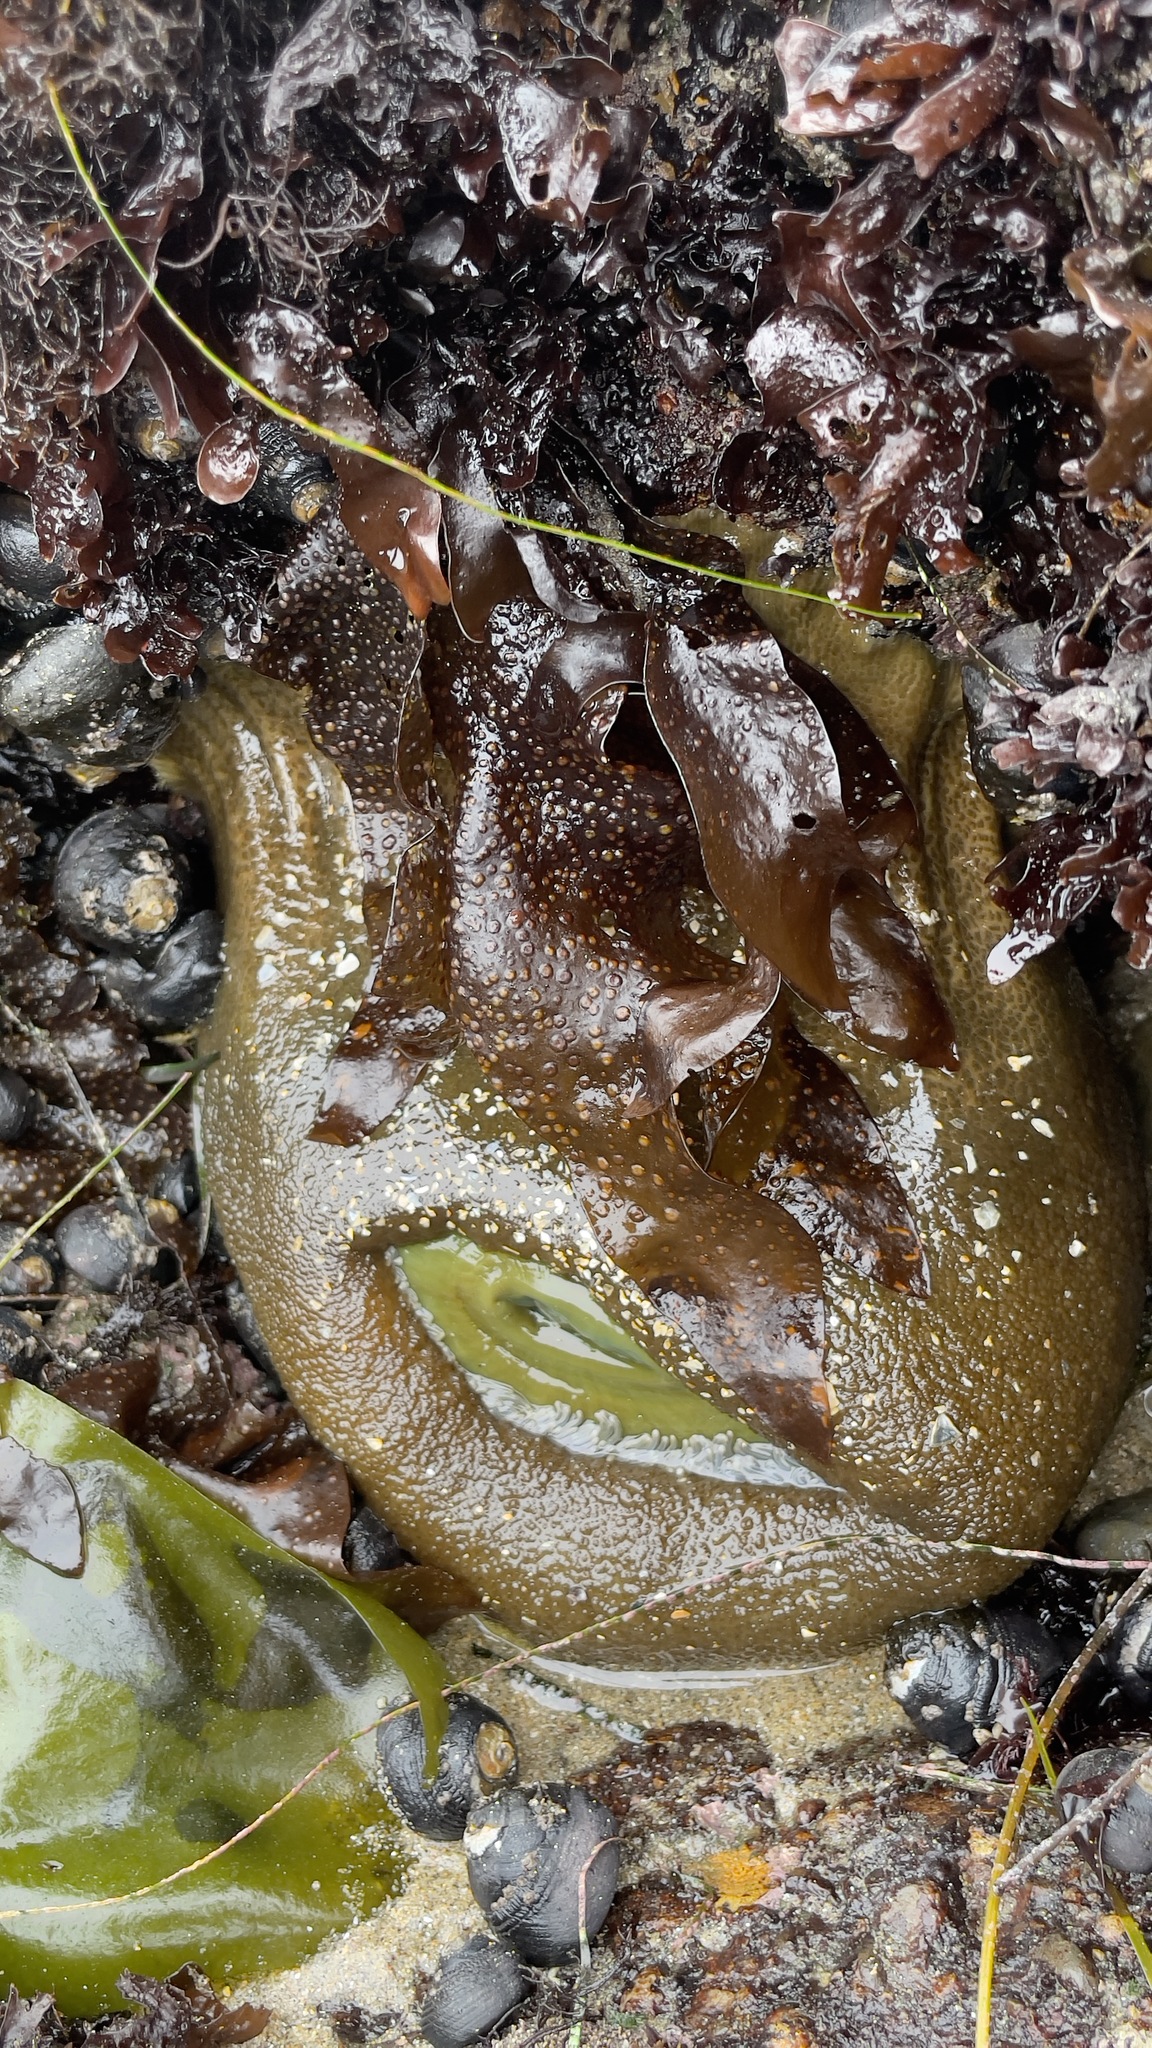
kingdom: Animalia
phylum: Cnidaria
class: Anthozoa
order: Actiniaria
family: Actiniidae
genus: Anthopleura
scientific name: Anthopleura xanthogrammica
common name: Giant green anemone
